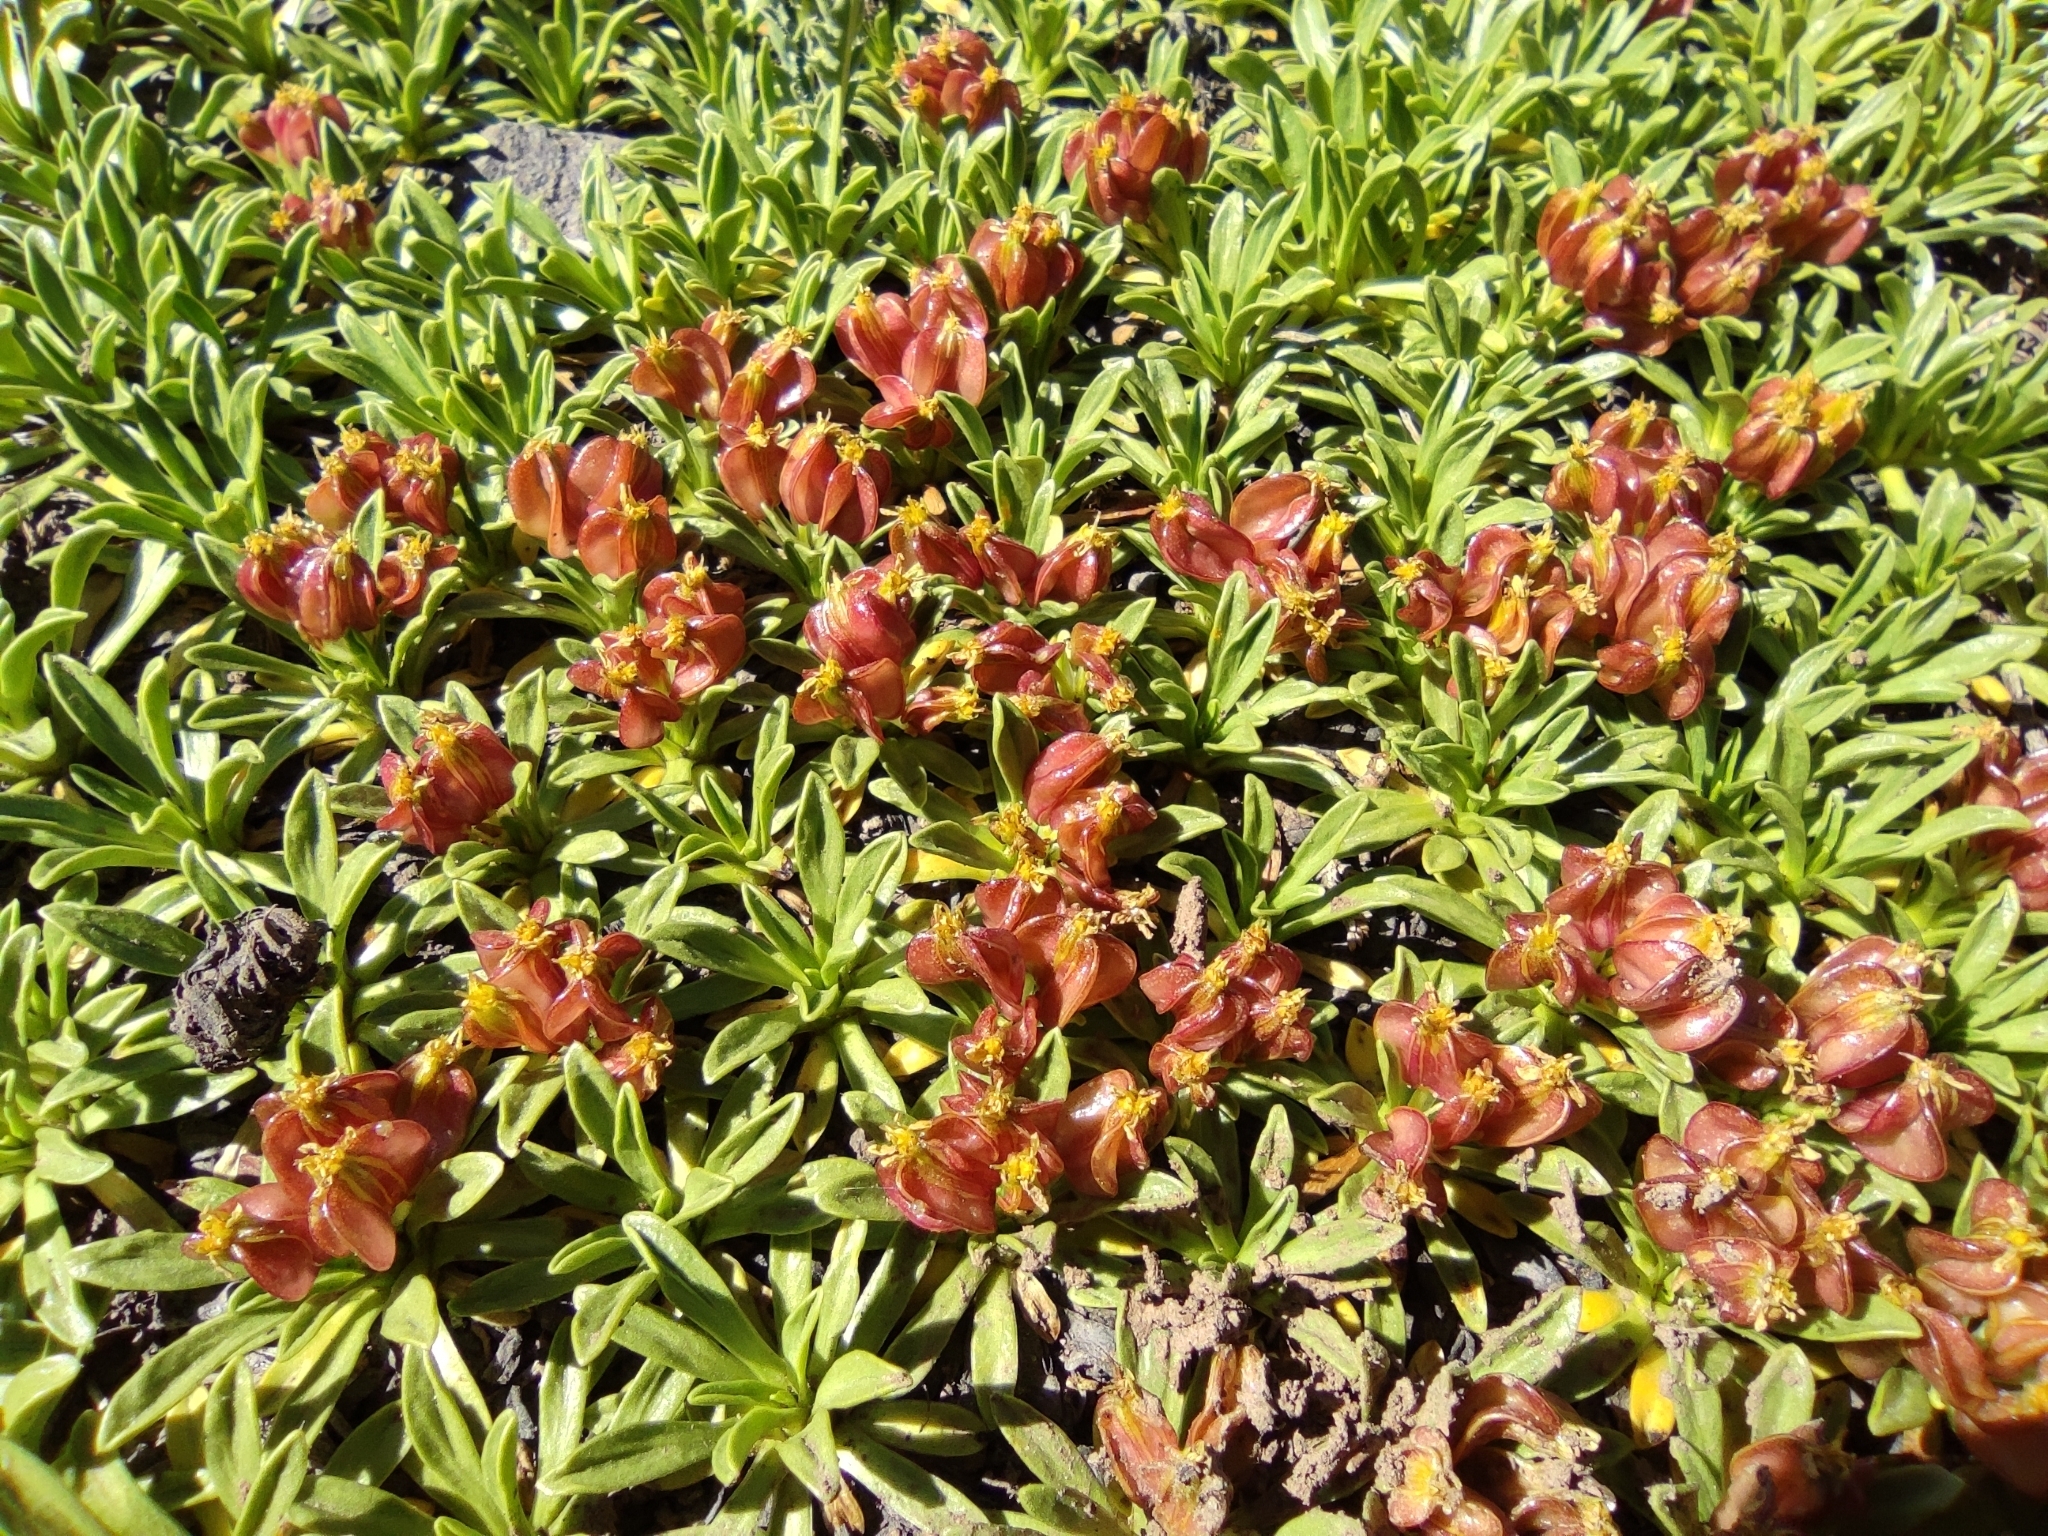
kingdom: Plantae
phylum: Tracheophyta
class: Magnoliopsida
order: Apiales
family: Apiaceae
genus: Azorella
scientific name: Azorella ruizii
